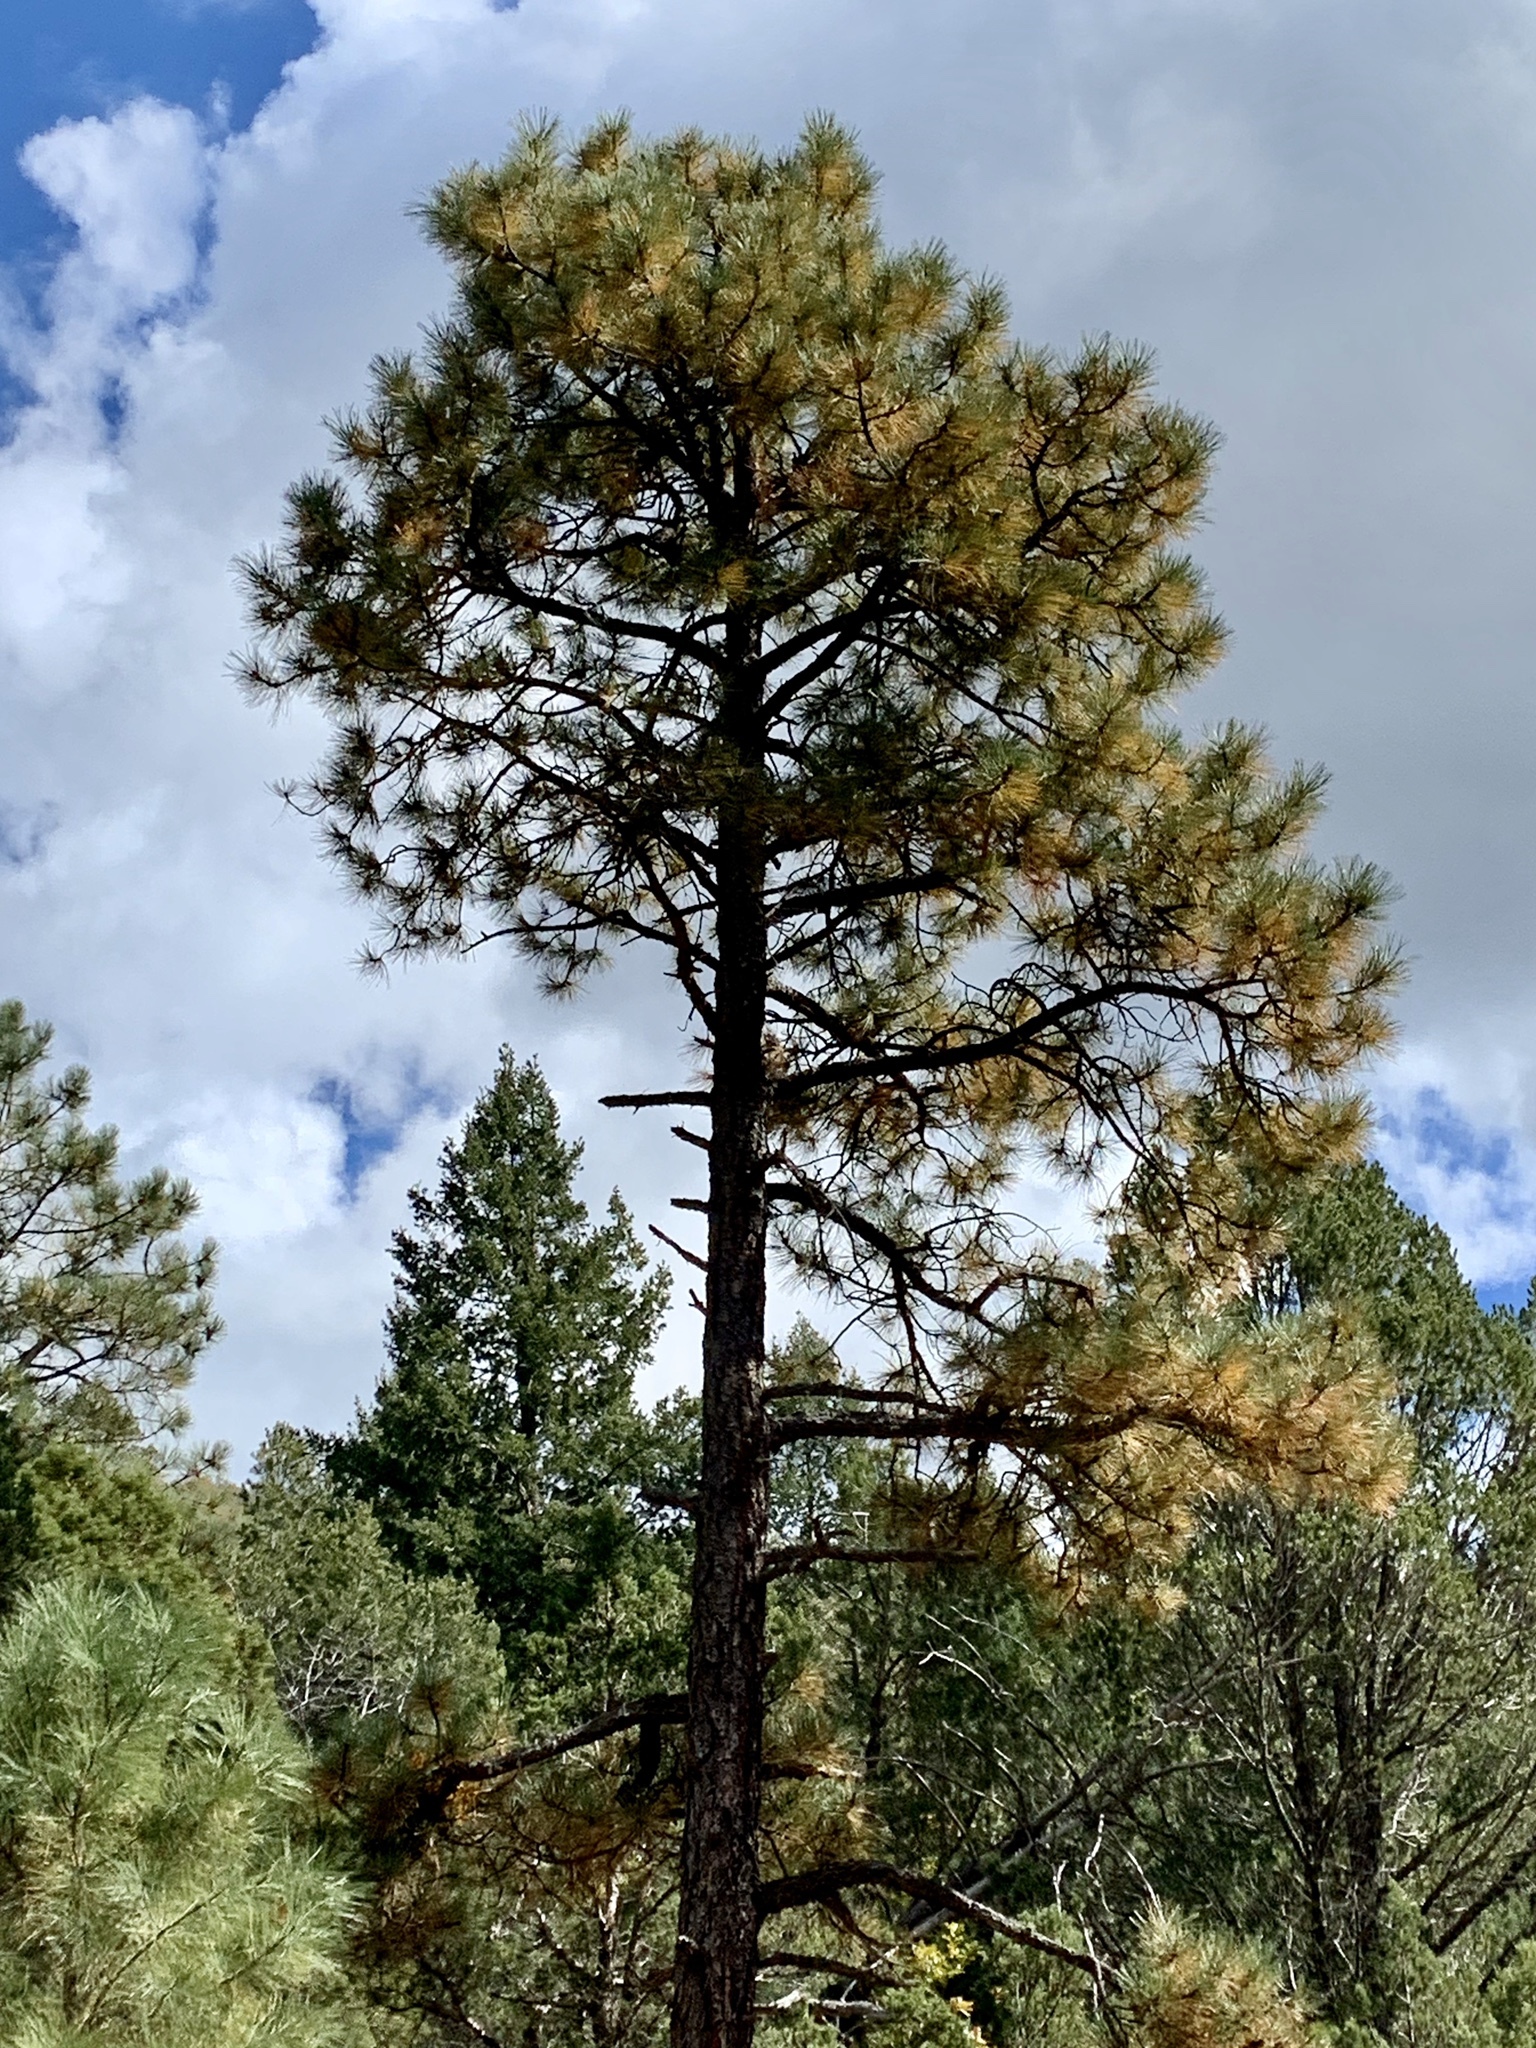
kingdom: Plantae
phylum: Tracheophyta
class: Pinopsida
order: Pinales
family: Pinaceae
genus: Pinus
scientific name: Pinus ponderosa
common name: Western yellow-pine
